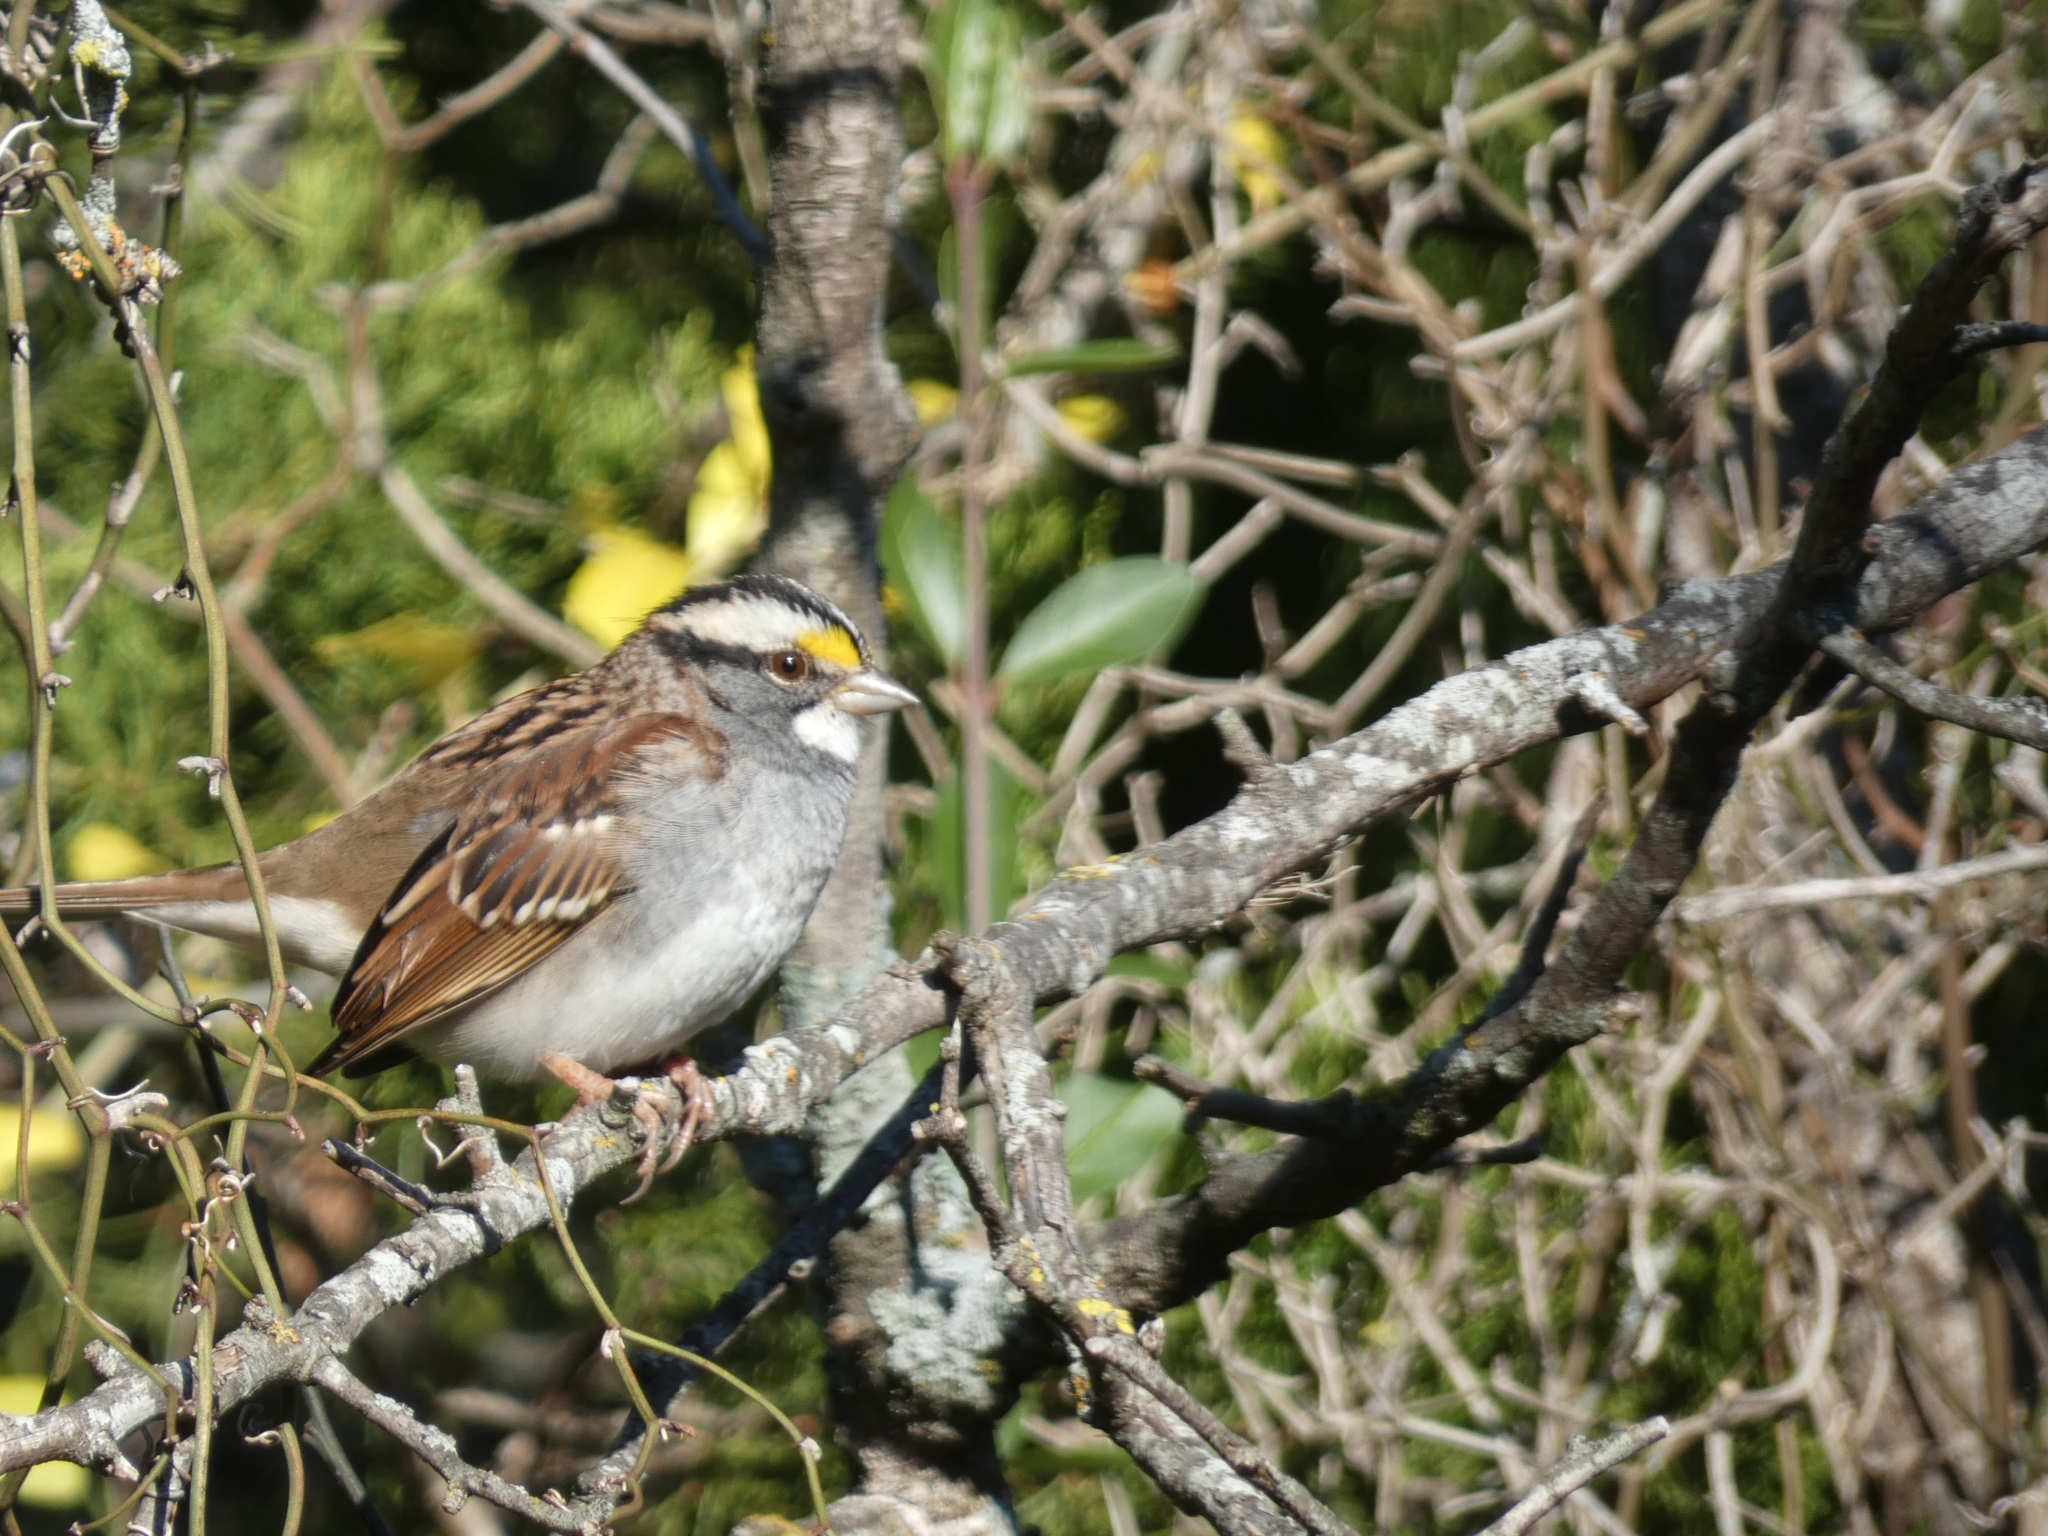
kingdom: Animalia
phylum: Chordata
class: Aves
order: Passeriformes
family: Passerellidae
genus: Zonotrichia
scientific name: Zonotrichia albicollis
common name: White-throated sparrow
